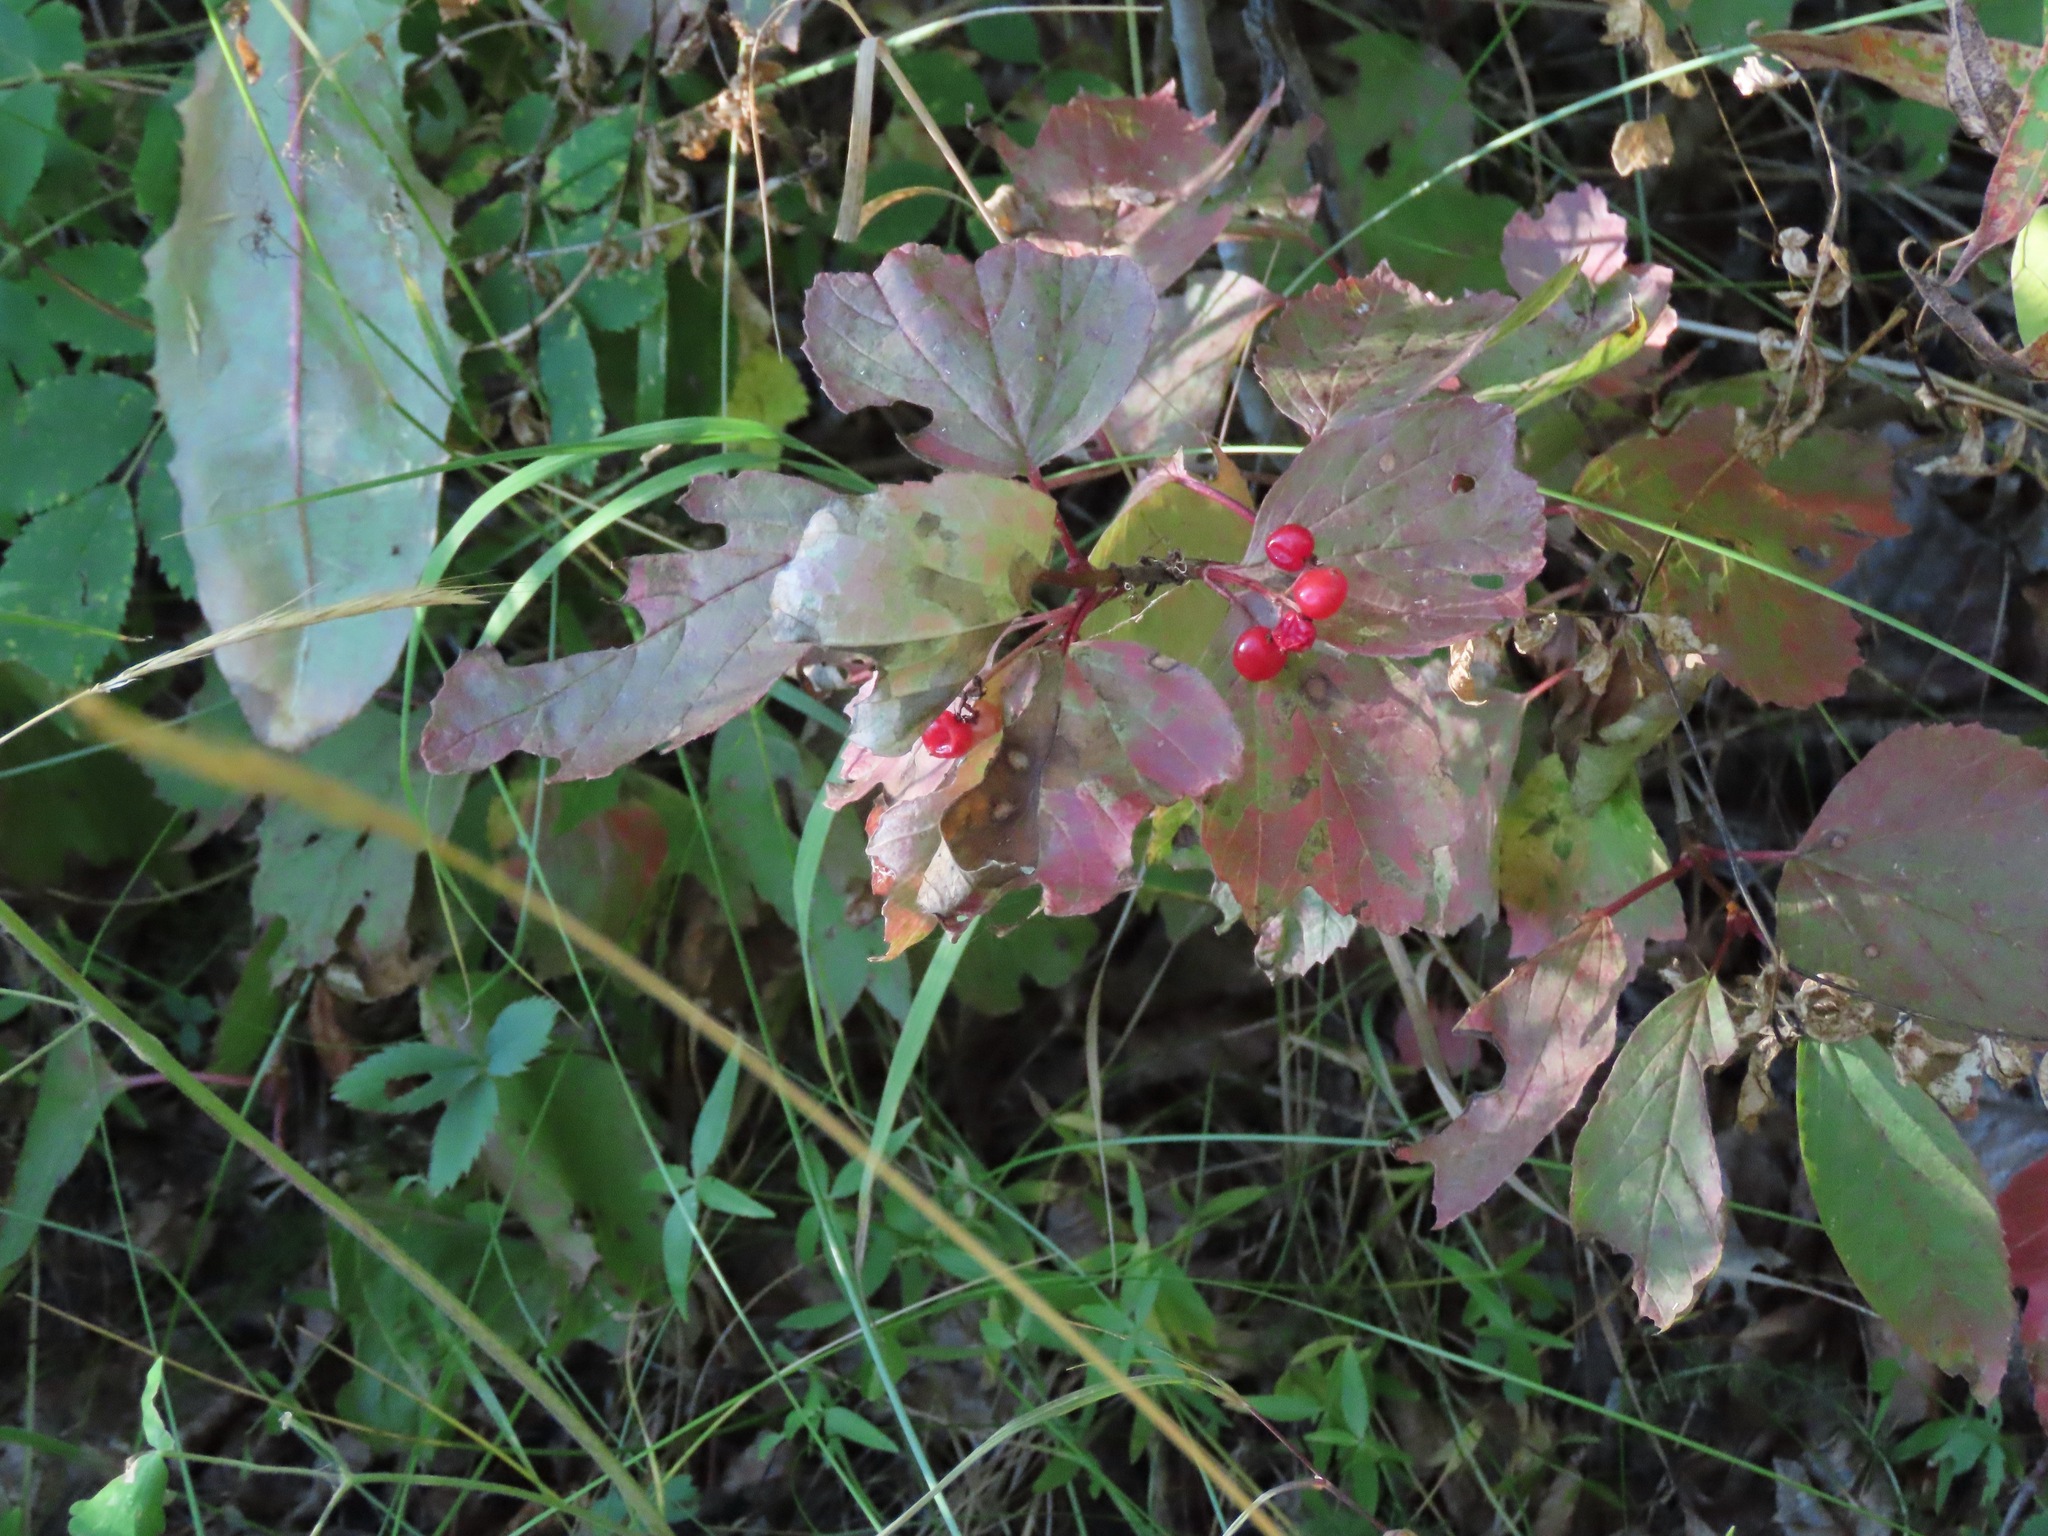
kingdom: Plantae
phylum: Tracheophyta
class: Magnoliopsida
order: Dipsacales
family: Viburnaceae
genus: Viburnum
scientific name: Viburnum edule
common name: Mooseberry
